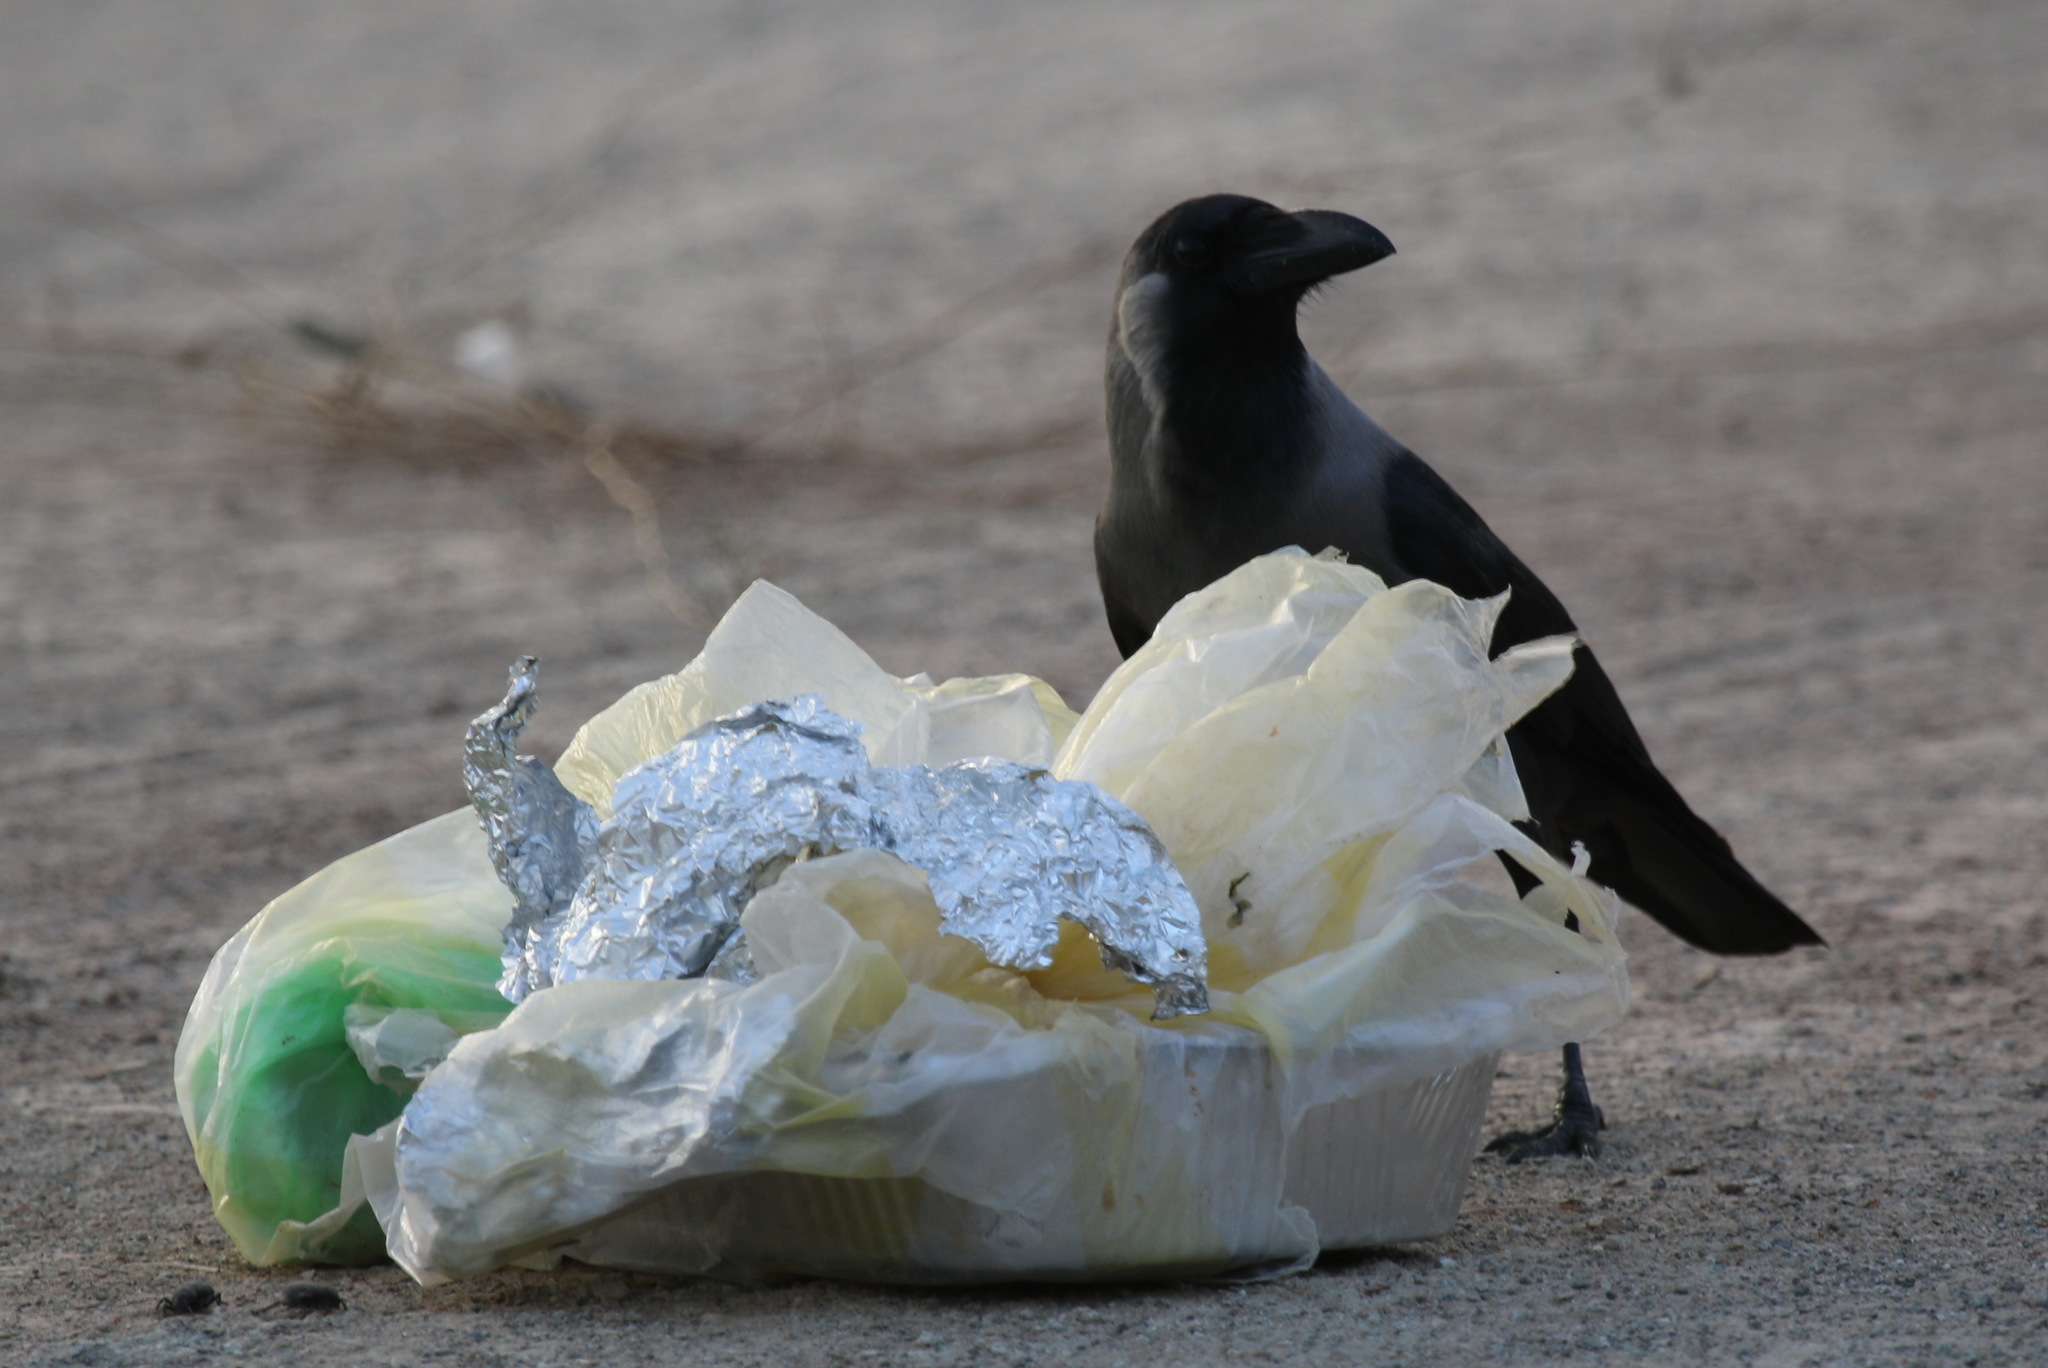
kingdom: Animalia
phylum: Chordata
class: Aves
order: Passeriformes
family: Corvidae
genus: Corvus
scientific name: Corvus splendens
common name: House crow
